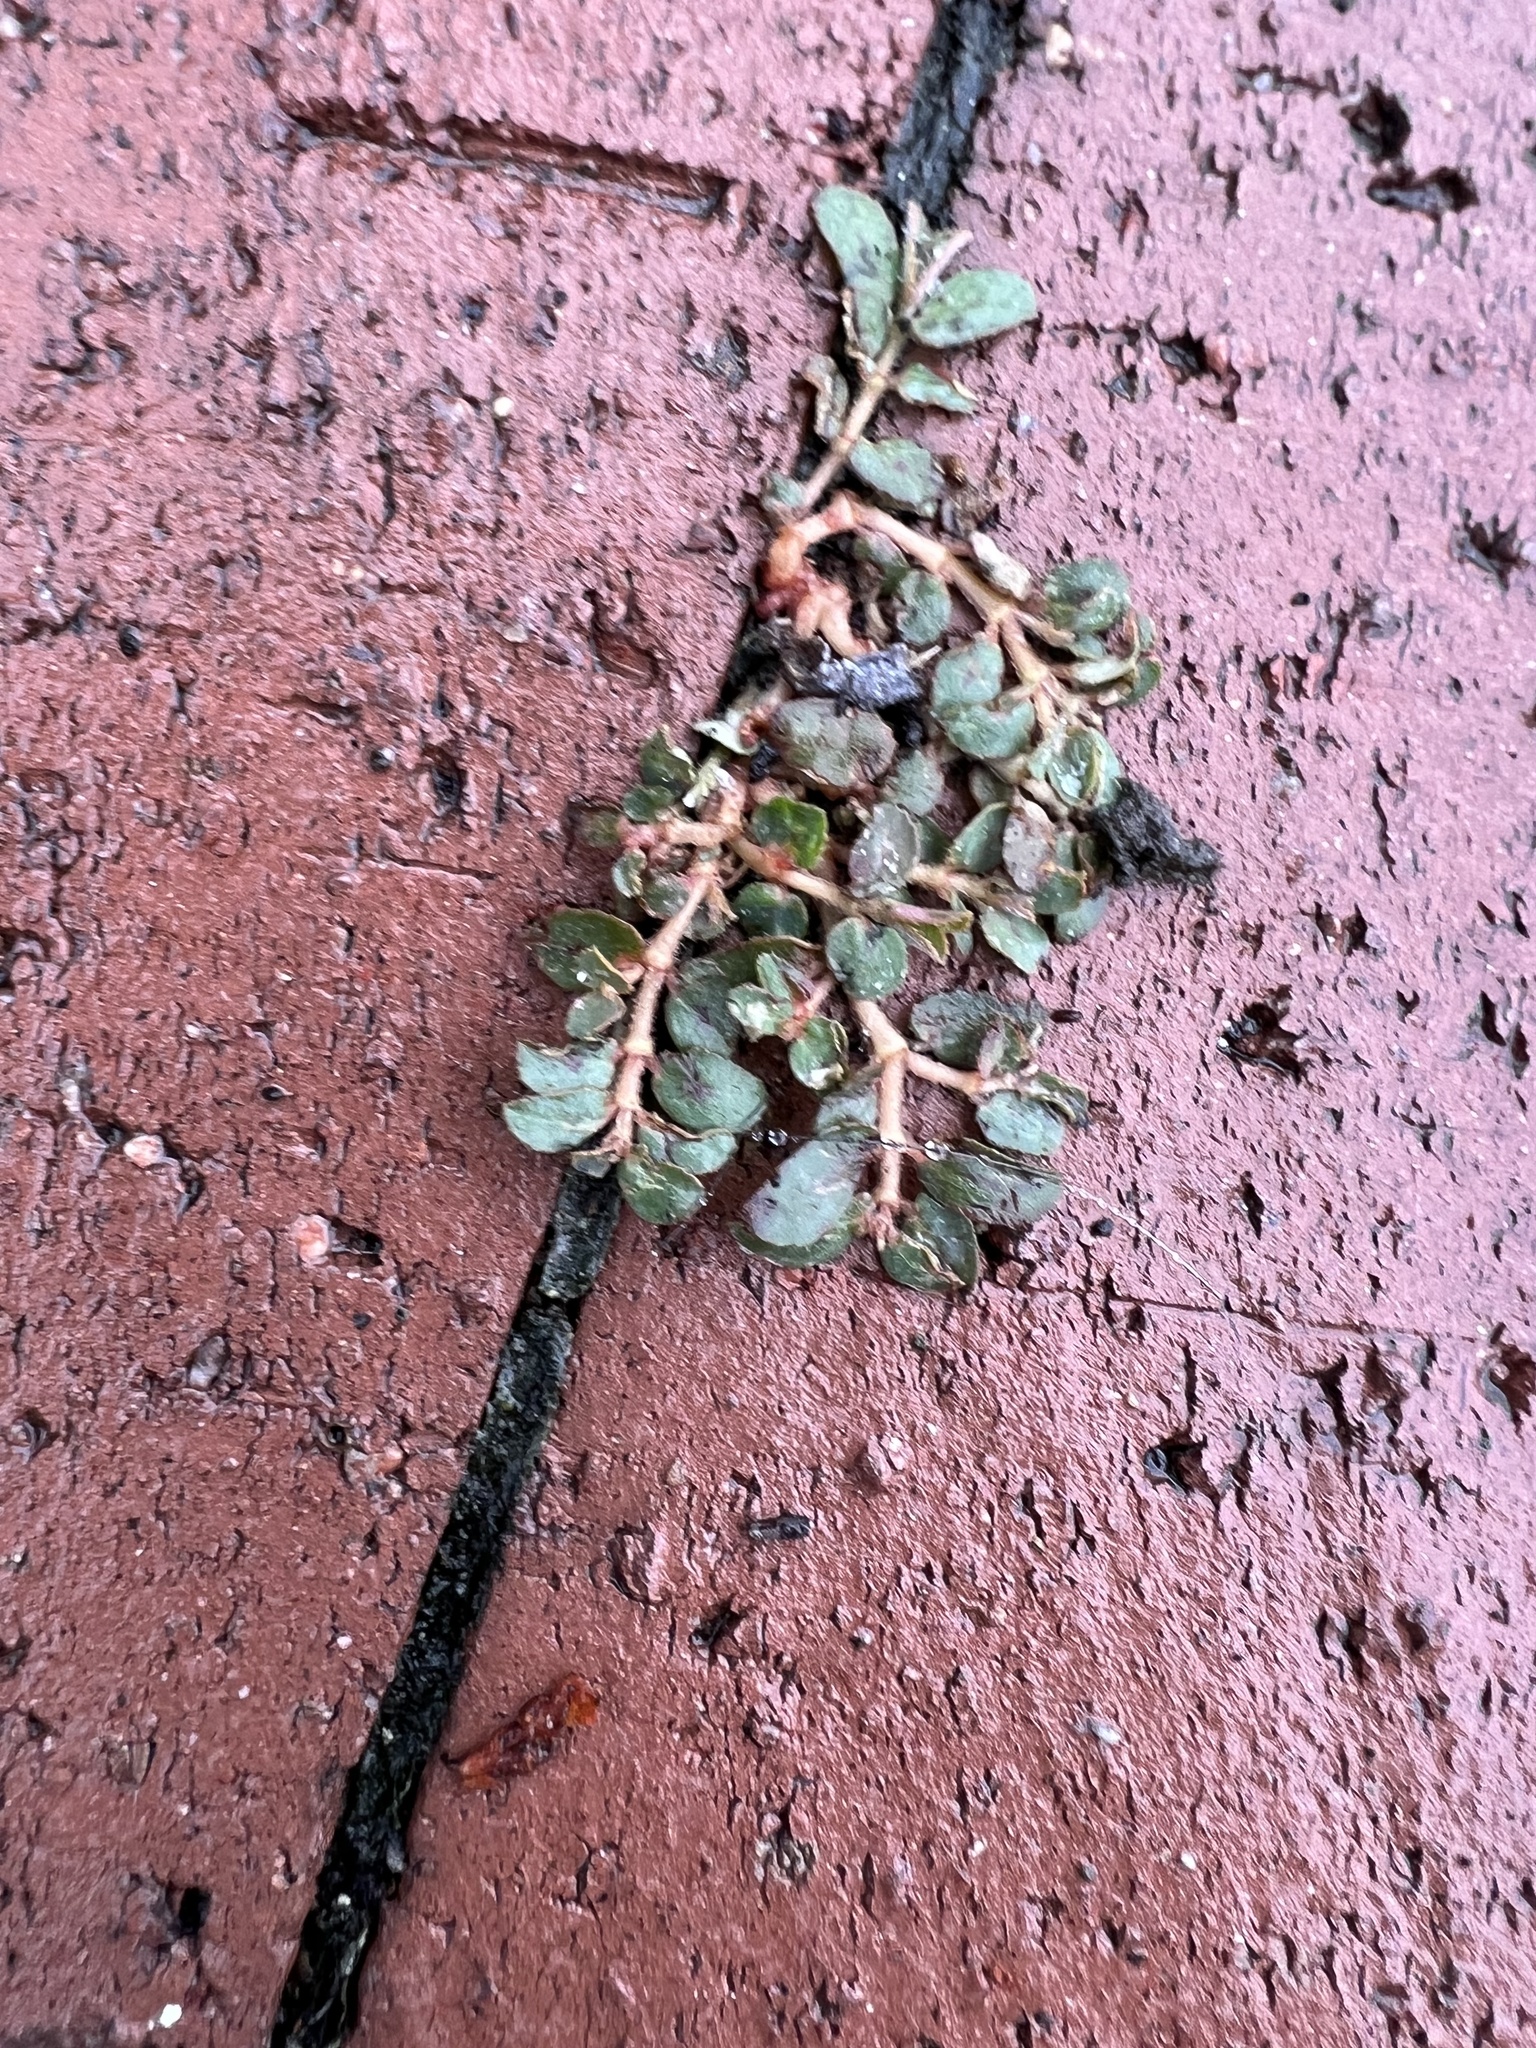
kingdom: Plantae
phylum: Tracheophyta
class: Magnoliopsida
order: Malpighiales
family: Euphorbiaceae
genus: Euphorbia
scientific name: Euphorbia maculata
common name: Spotted spurge
